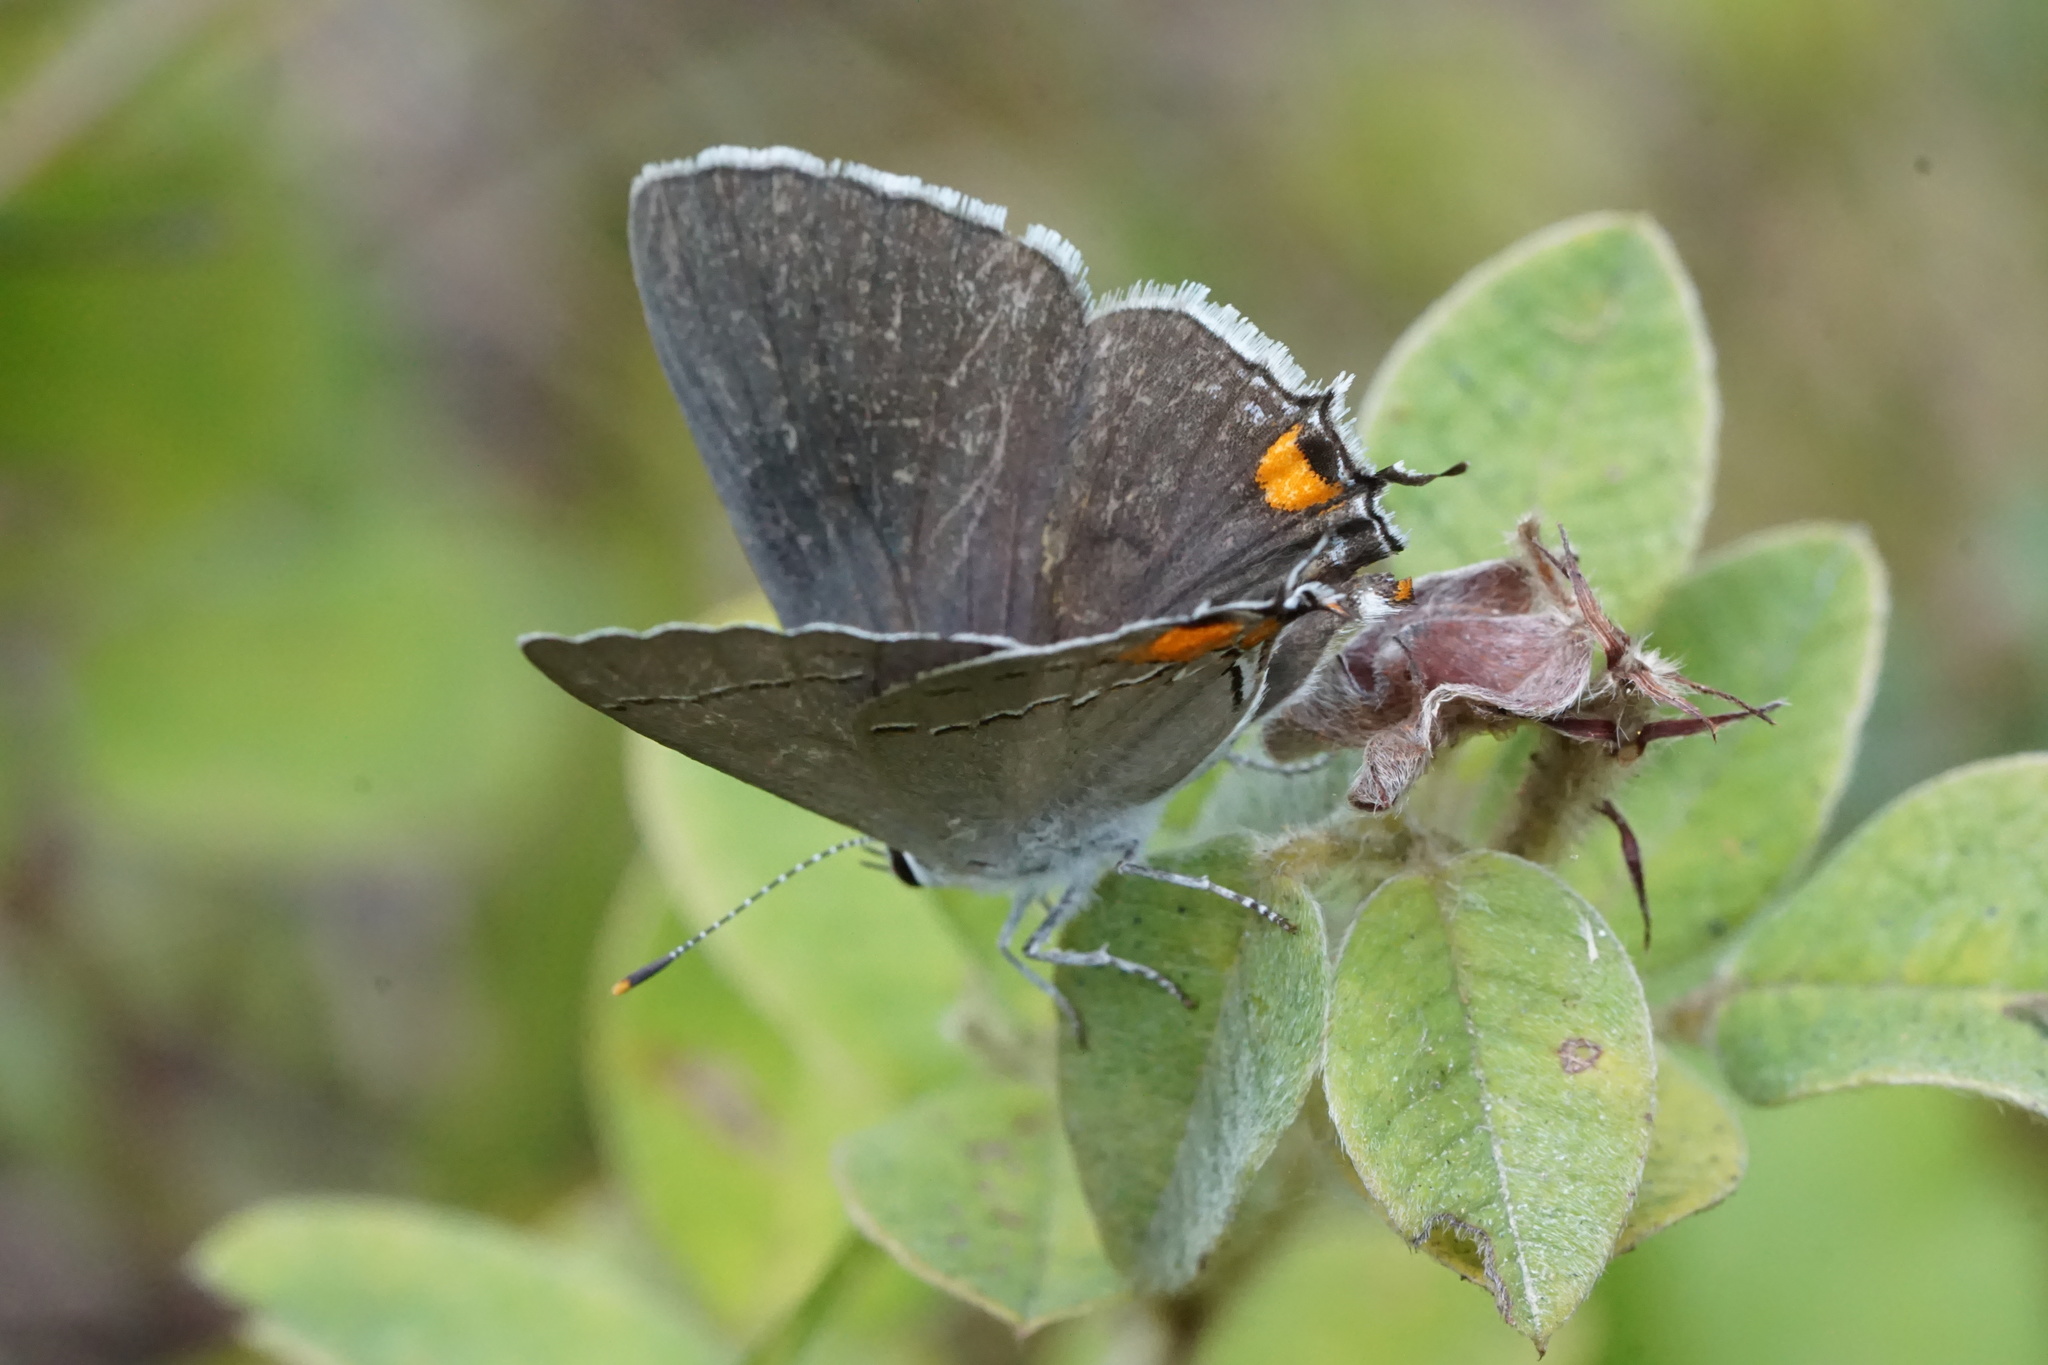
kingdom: Animalia
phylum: Arthropoda
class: Insecta
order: Lepidoptera
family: Lycaenidae
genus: Strymon
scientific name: Strymon melinus
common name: Gray hairstreak
